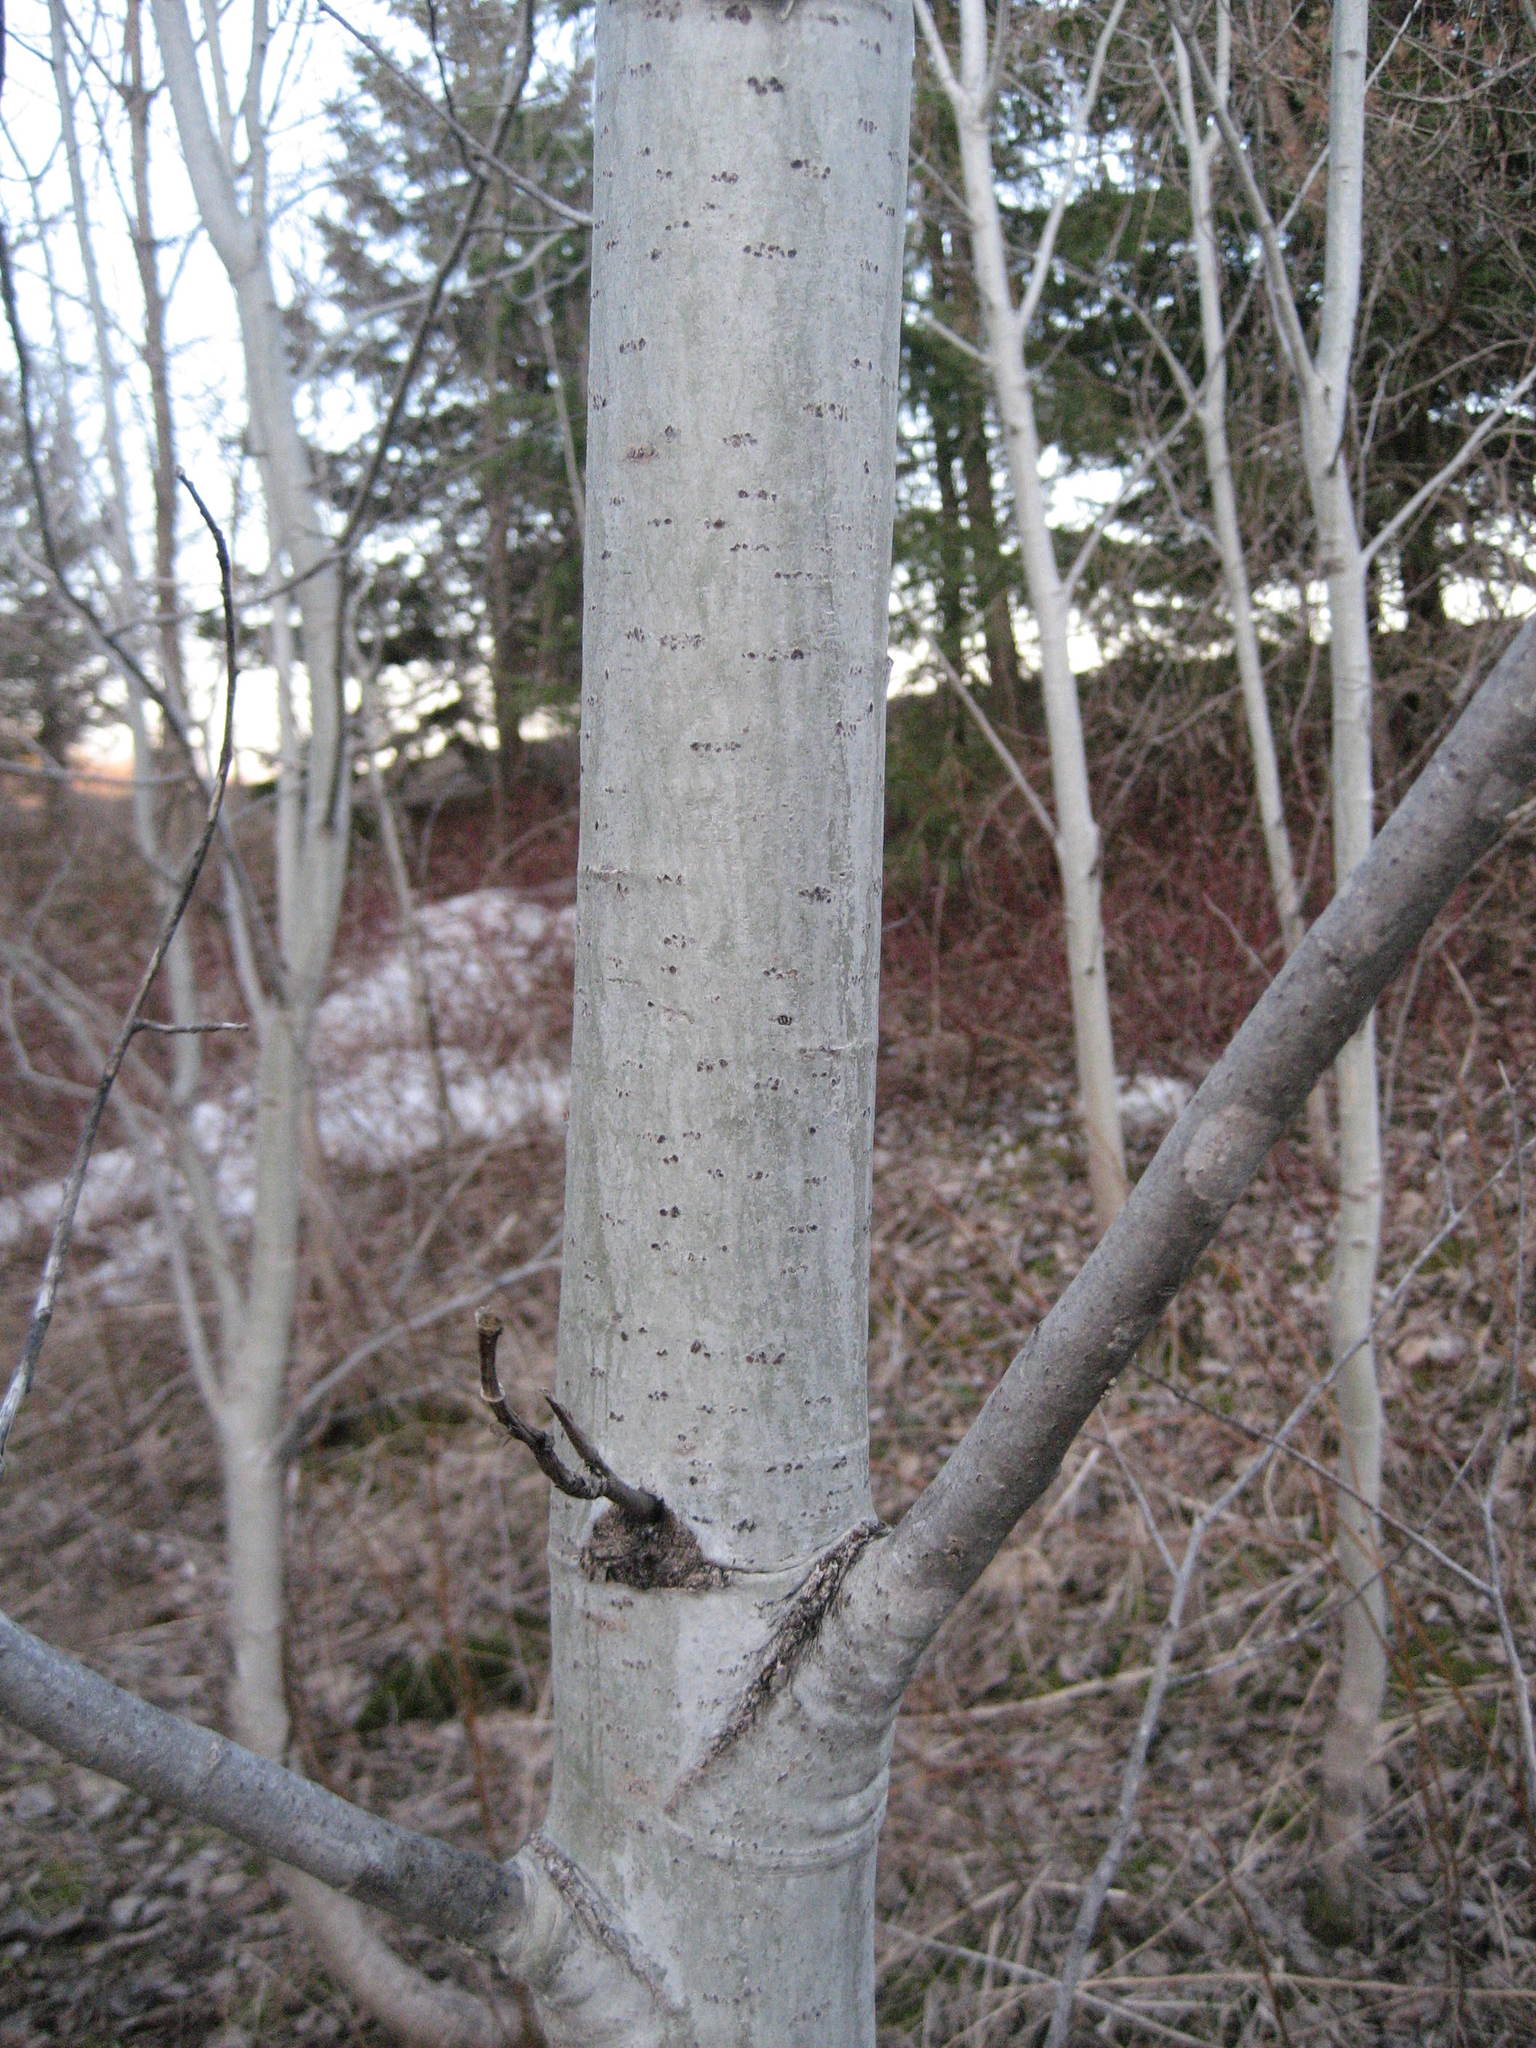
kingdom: Plantae
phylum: Tracheophyta
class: Magnoliopsida
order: Malpighiales
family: Salicaceae
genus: Populus
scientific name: Populus tremuloides
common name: Quaking aspen
